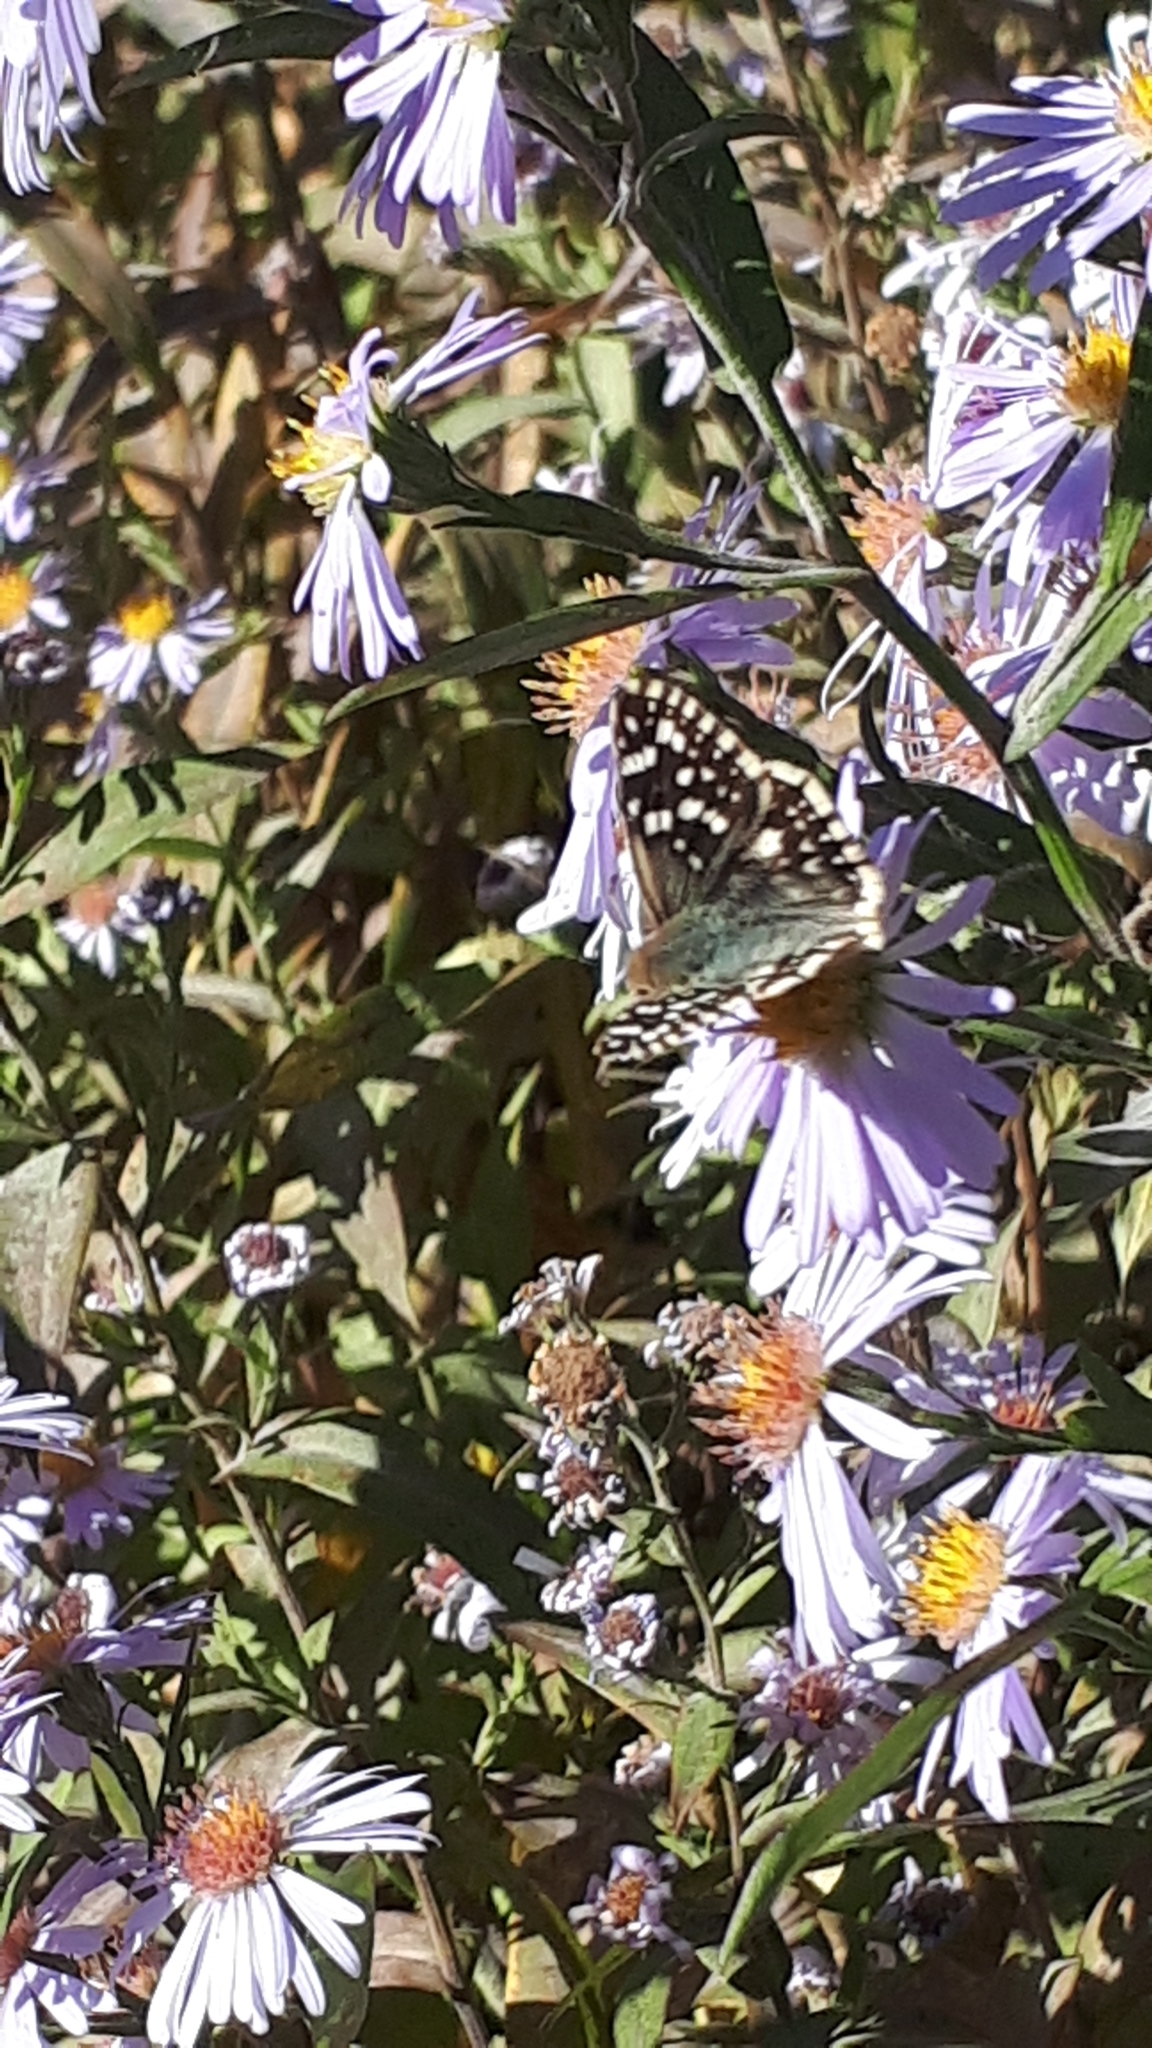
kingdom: Animalia
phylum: Arthropoda
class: Insecta
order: Lepidoptera
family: Hesperiidae
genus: Heliopetes
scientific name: Heliopetes americanus
